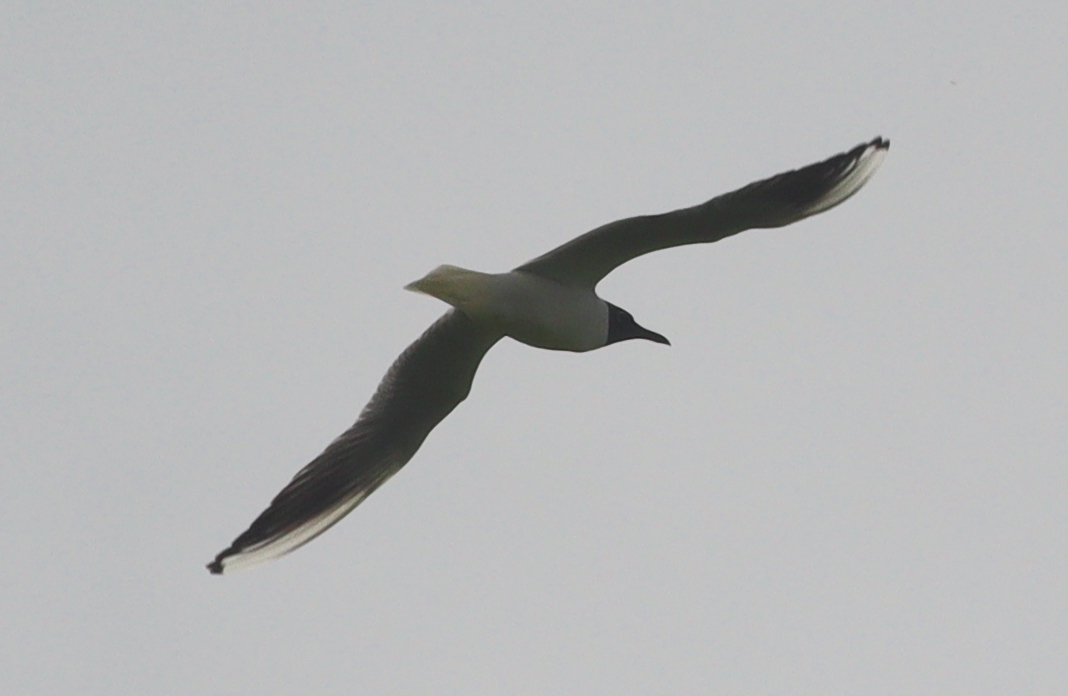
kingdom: Animalia
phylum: Chordata
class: Aves
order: Charadriiformes
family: Laridae
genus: Chroicocephalus
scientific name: Chroicocephalus ridibundus
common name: Black-headed gull
